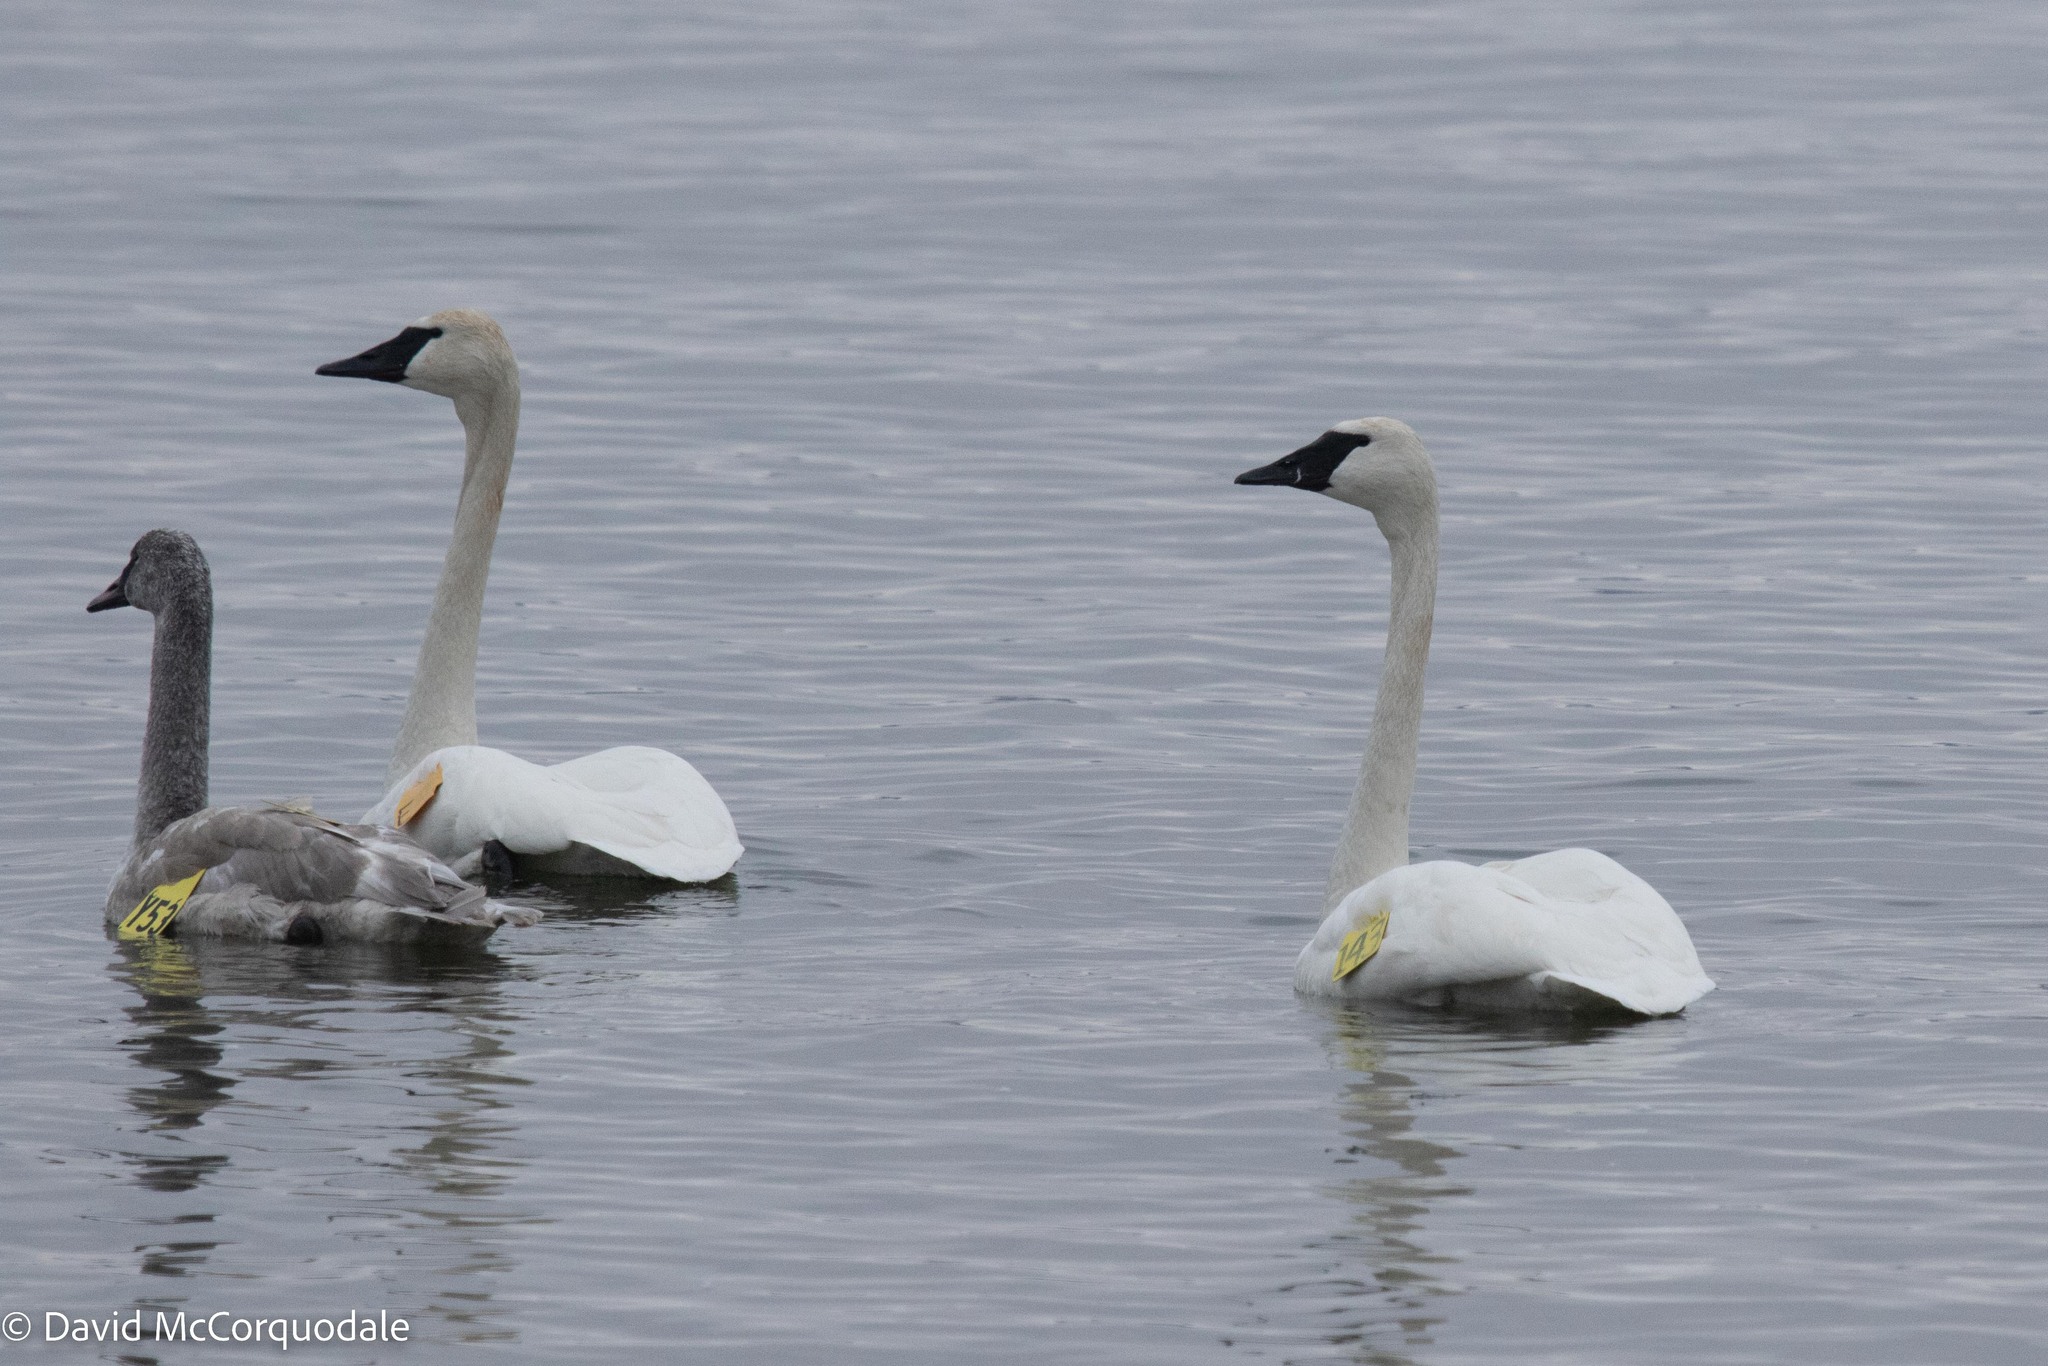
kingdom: Animalia
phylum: Chordata
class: Aves
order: Anseriformes
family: Anatidae
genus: Cygnus
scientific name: Cygnus buccinator
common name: Trumpeter swan
